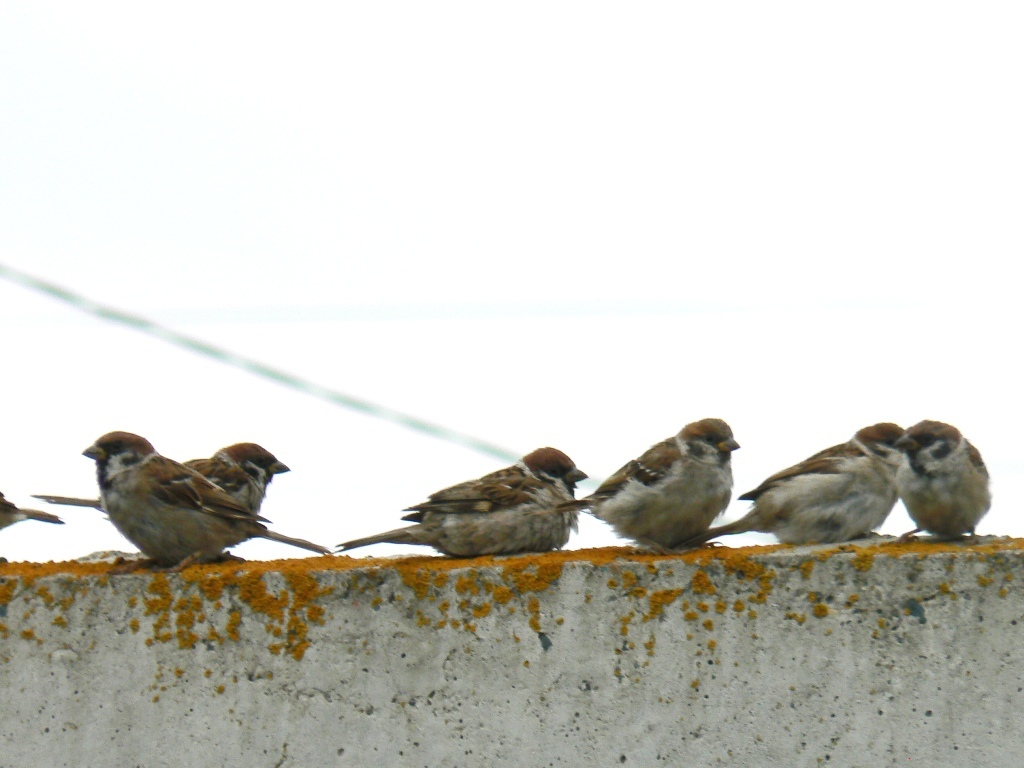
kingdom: Animalia
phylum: Chordata
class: Aves
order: Passeriformes
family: Passeridae
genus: Passer
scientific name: Passer montanus
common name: Eurasian tree sparrow
